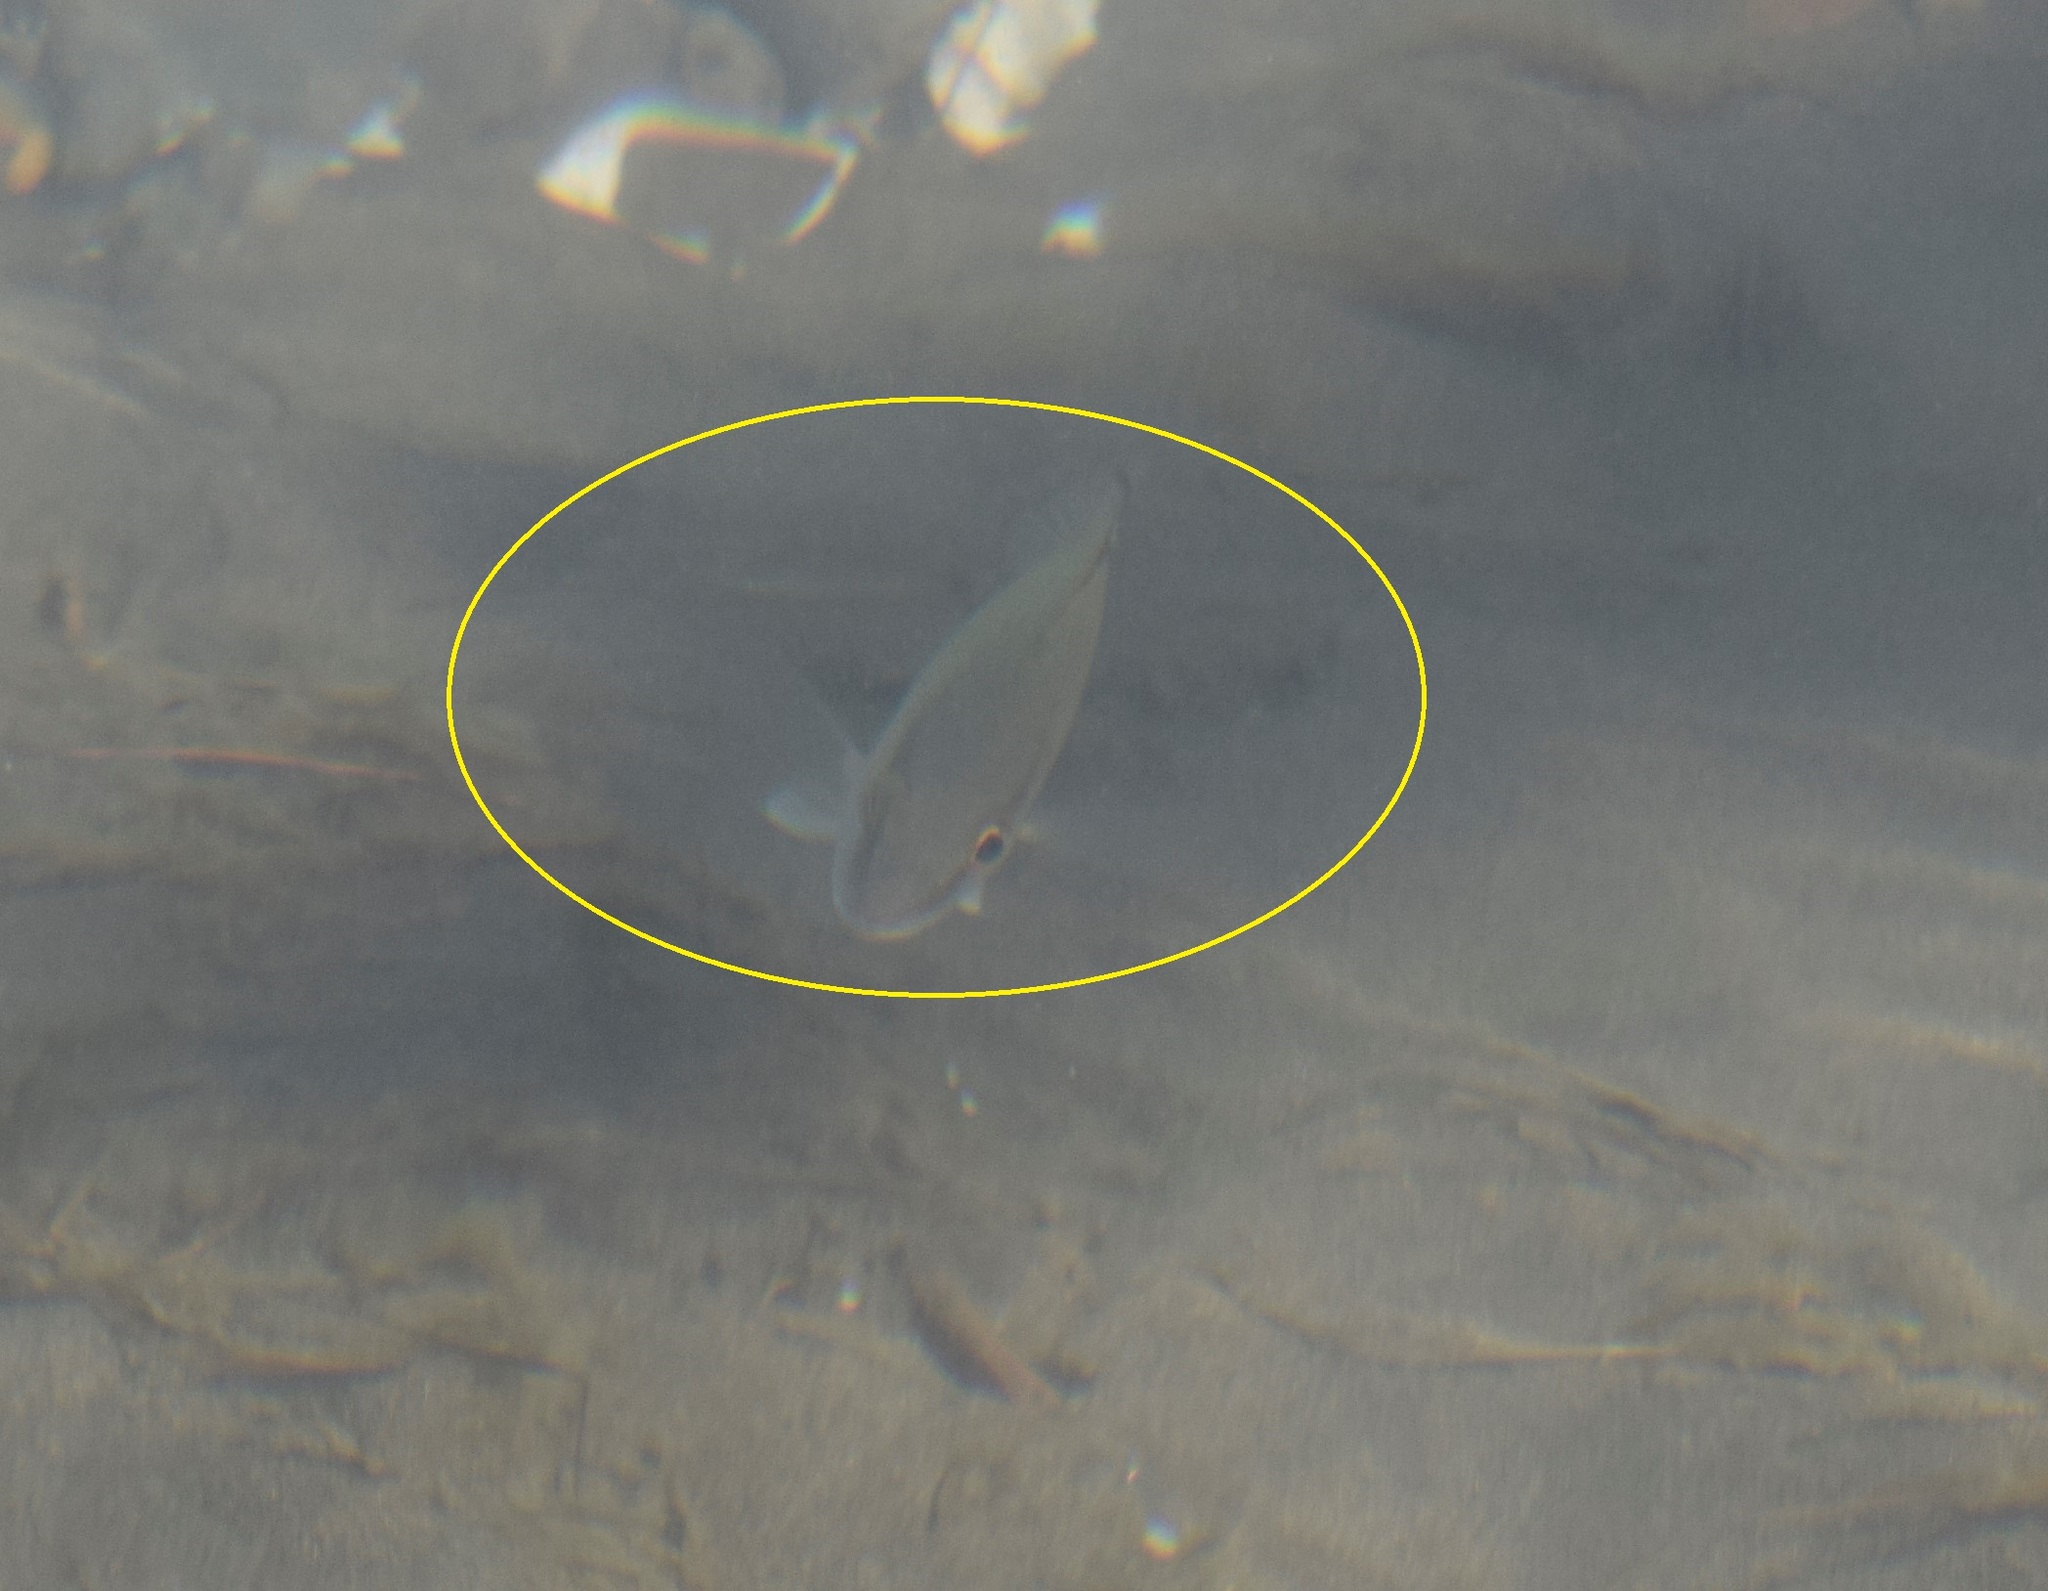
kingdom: Animalia
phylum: Chordata
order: Perciformes
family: Lutjanidae
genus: Lutjanus
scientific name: Lutjanus griseus
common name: Gray snapper
